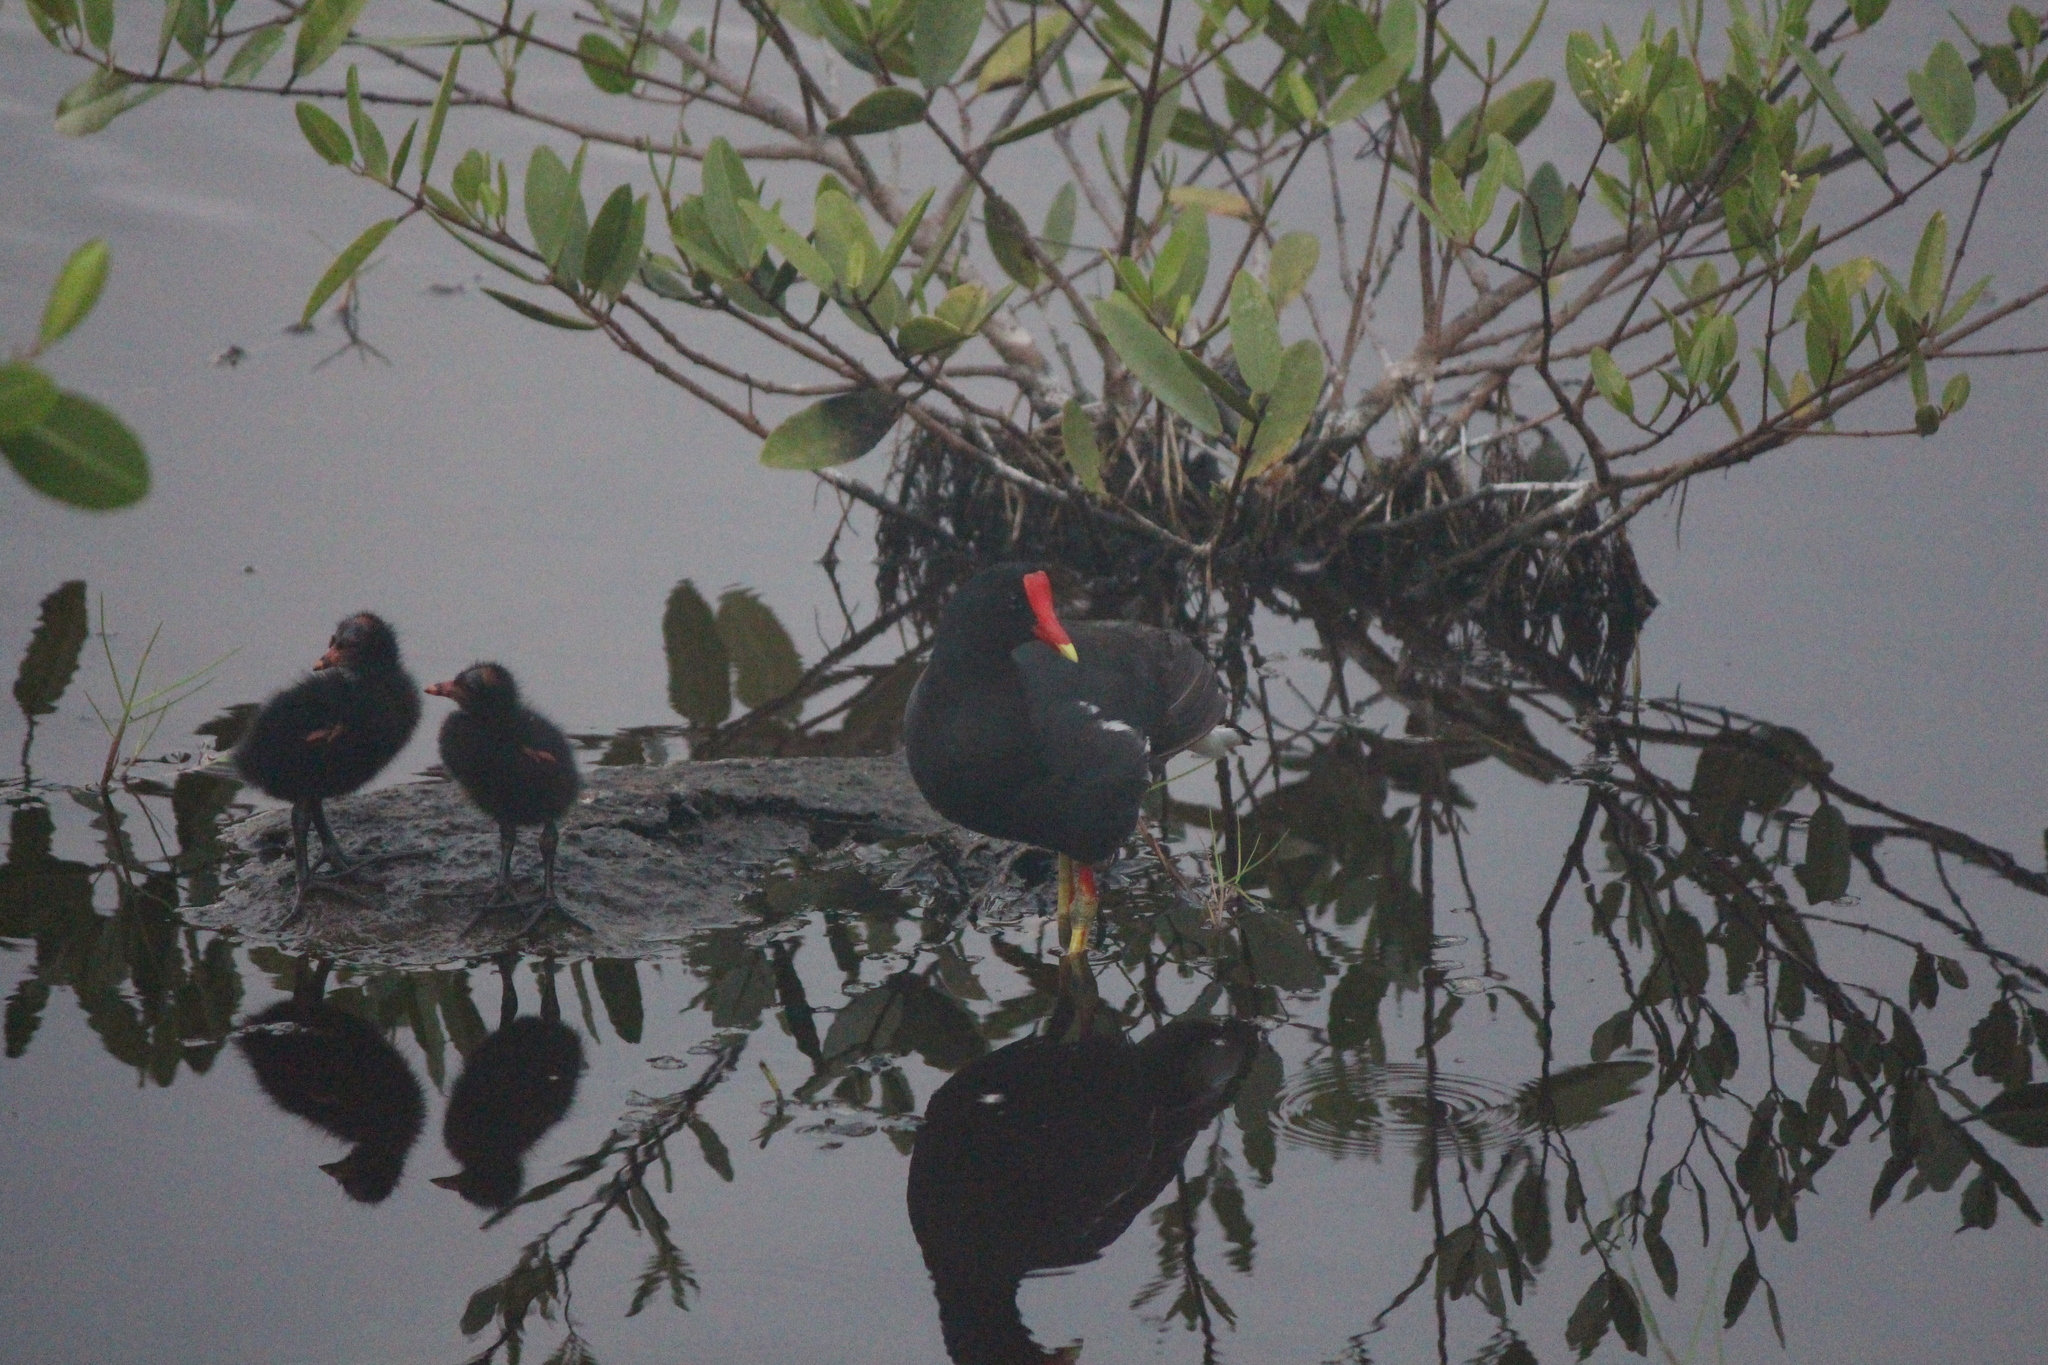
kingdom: Animalia
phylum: Chordata
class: Aves
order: Gruiformes
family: Rallidae
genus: Gallinula
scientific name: Gallinula chloropus
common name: Common moorhen
